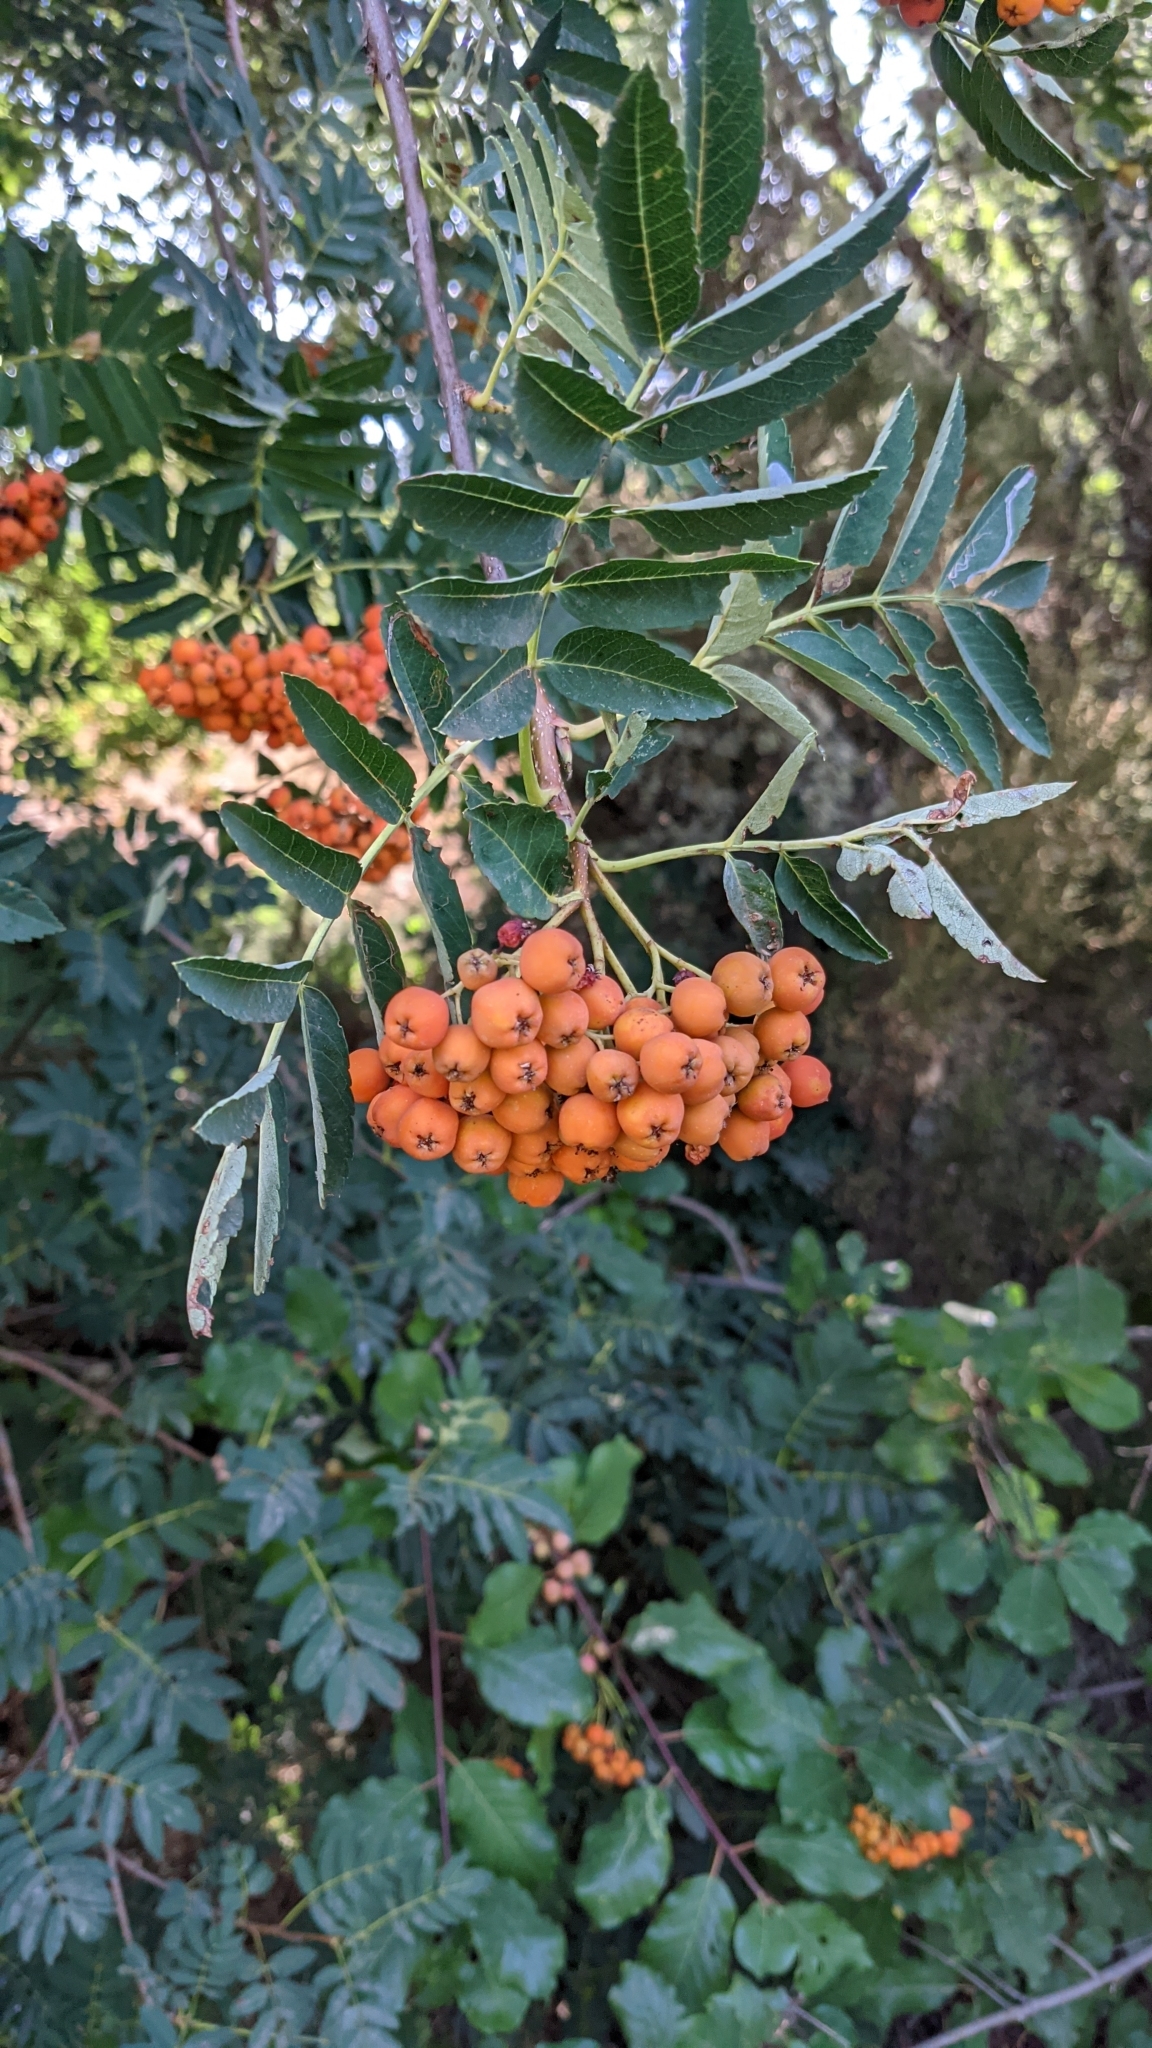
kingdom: Plantae
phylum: Tracheophyta
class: Magnoliopsida
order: Rosales
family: Rosaceae
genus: Sorbus
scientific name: Sorbus aucuparia
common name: Rowan
